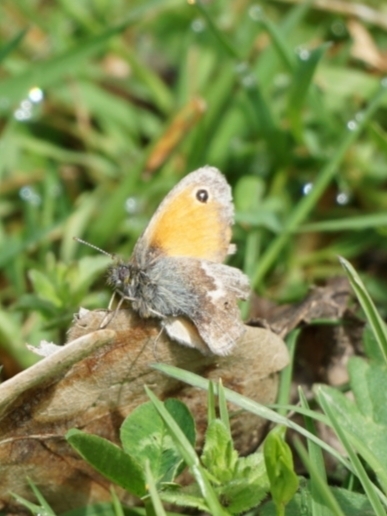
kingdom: Animalia
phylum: Arthropoda
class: Insecta
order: Lepidoptera
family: Nymphalidae
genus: Coenonympha
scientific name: Coenonympha pamphilus
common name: Small heath
